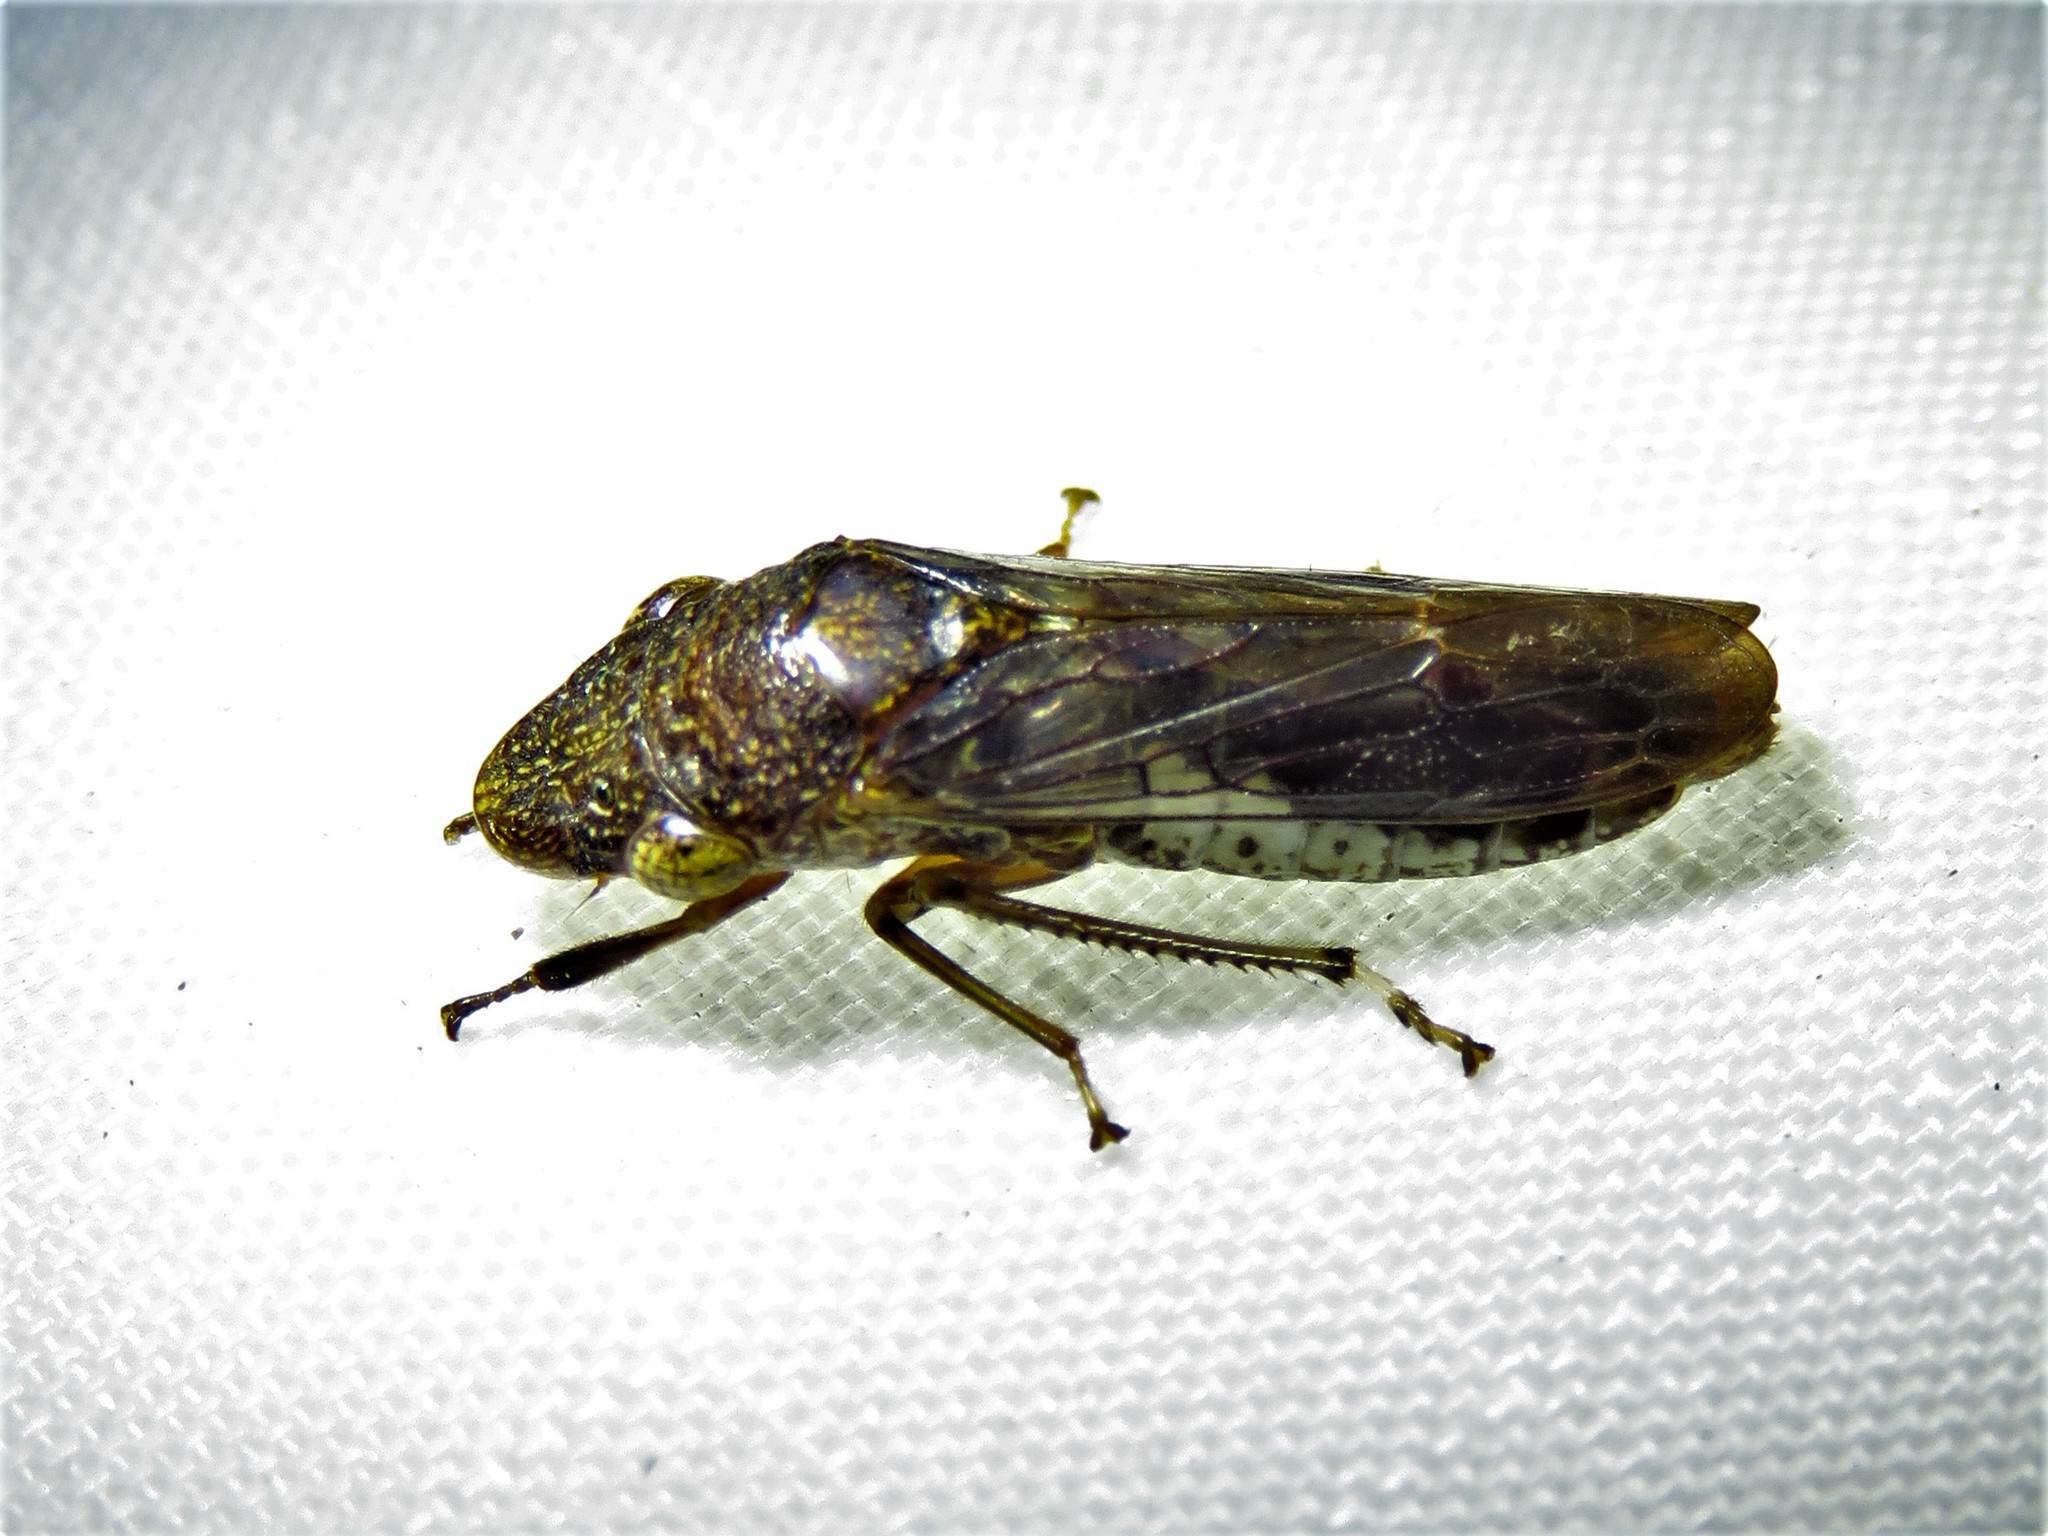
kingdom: Animalia
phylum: Arthropoda
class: Insecta
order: Hemiptera
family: Cicadellidae
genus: Homalodisca
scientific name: Homalodisca vitripennis
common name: Glassy-winged sharpshooter
